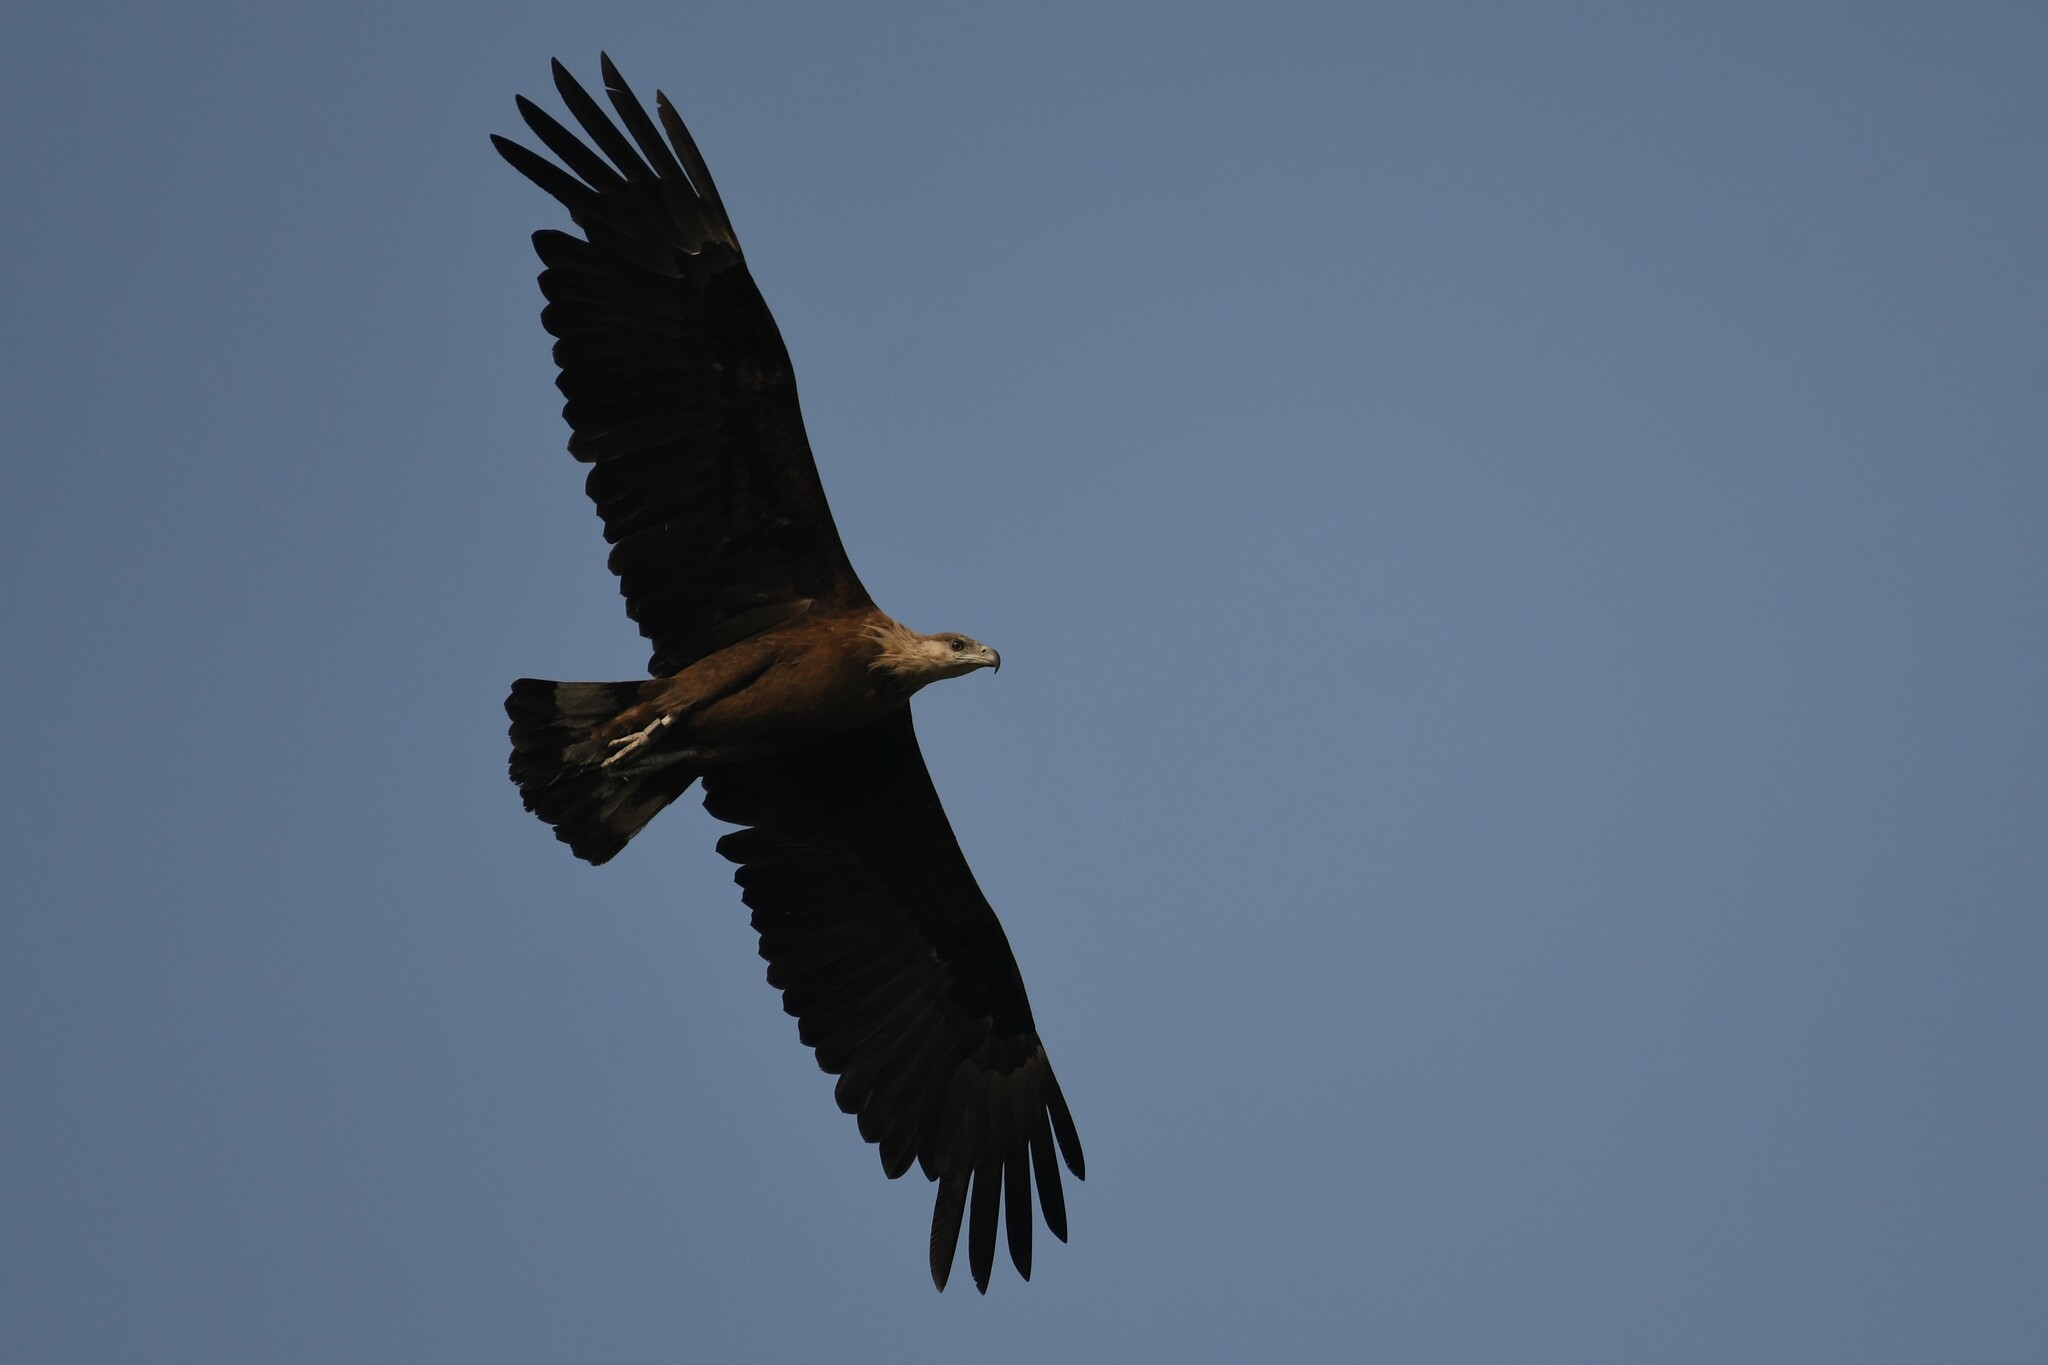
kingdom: Animalia
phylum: Chordata
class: Aves
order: Accipitriformes
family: Accipitridae
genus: Haliaeetus
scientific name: Haliaeetus leucoryphus
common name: Pallas's fish eagle
